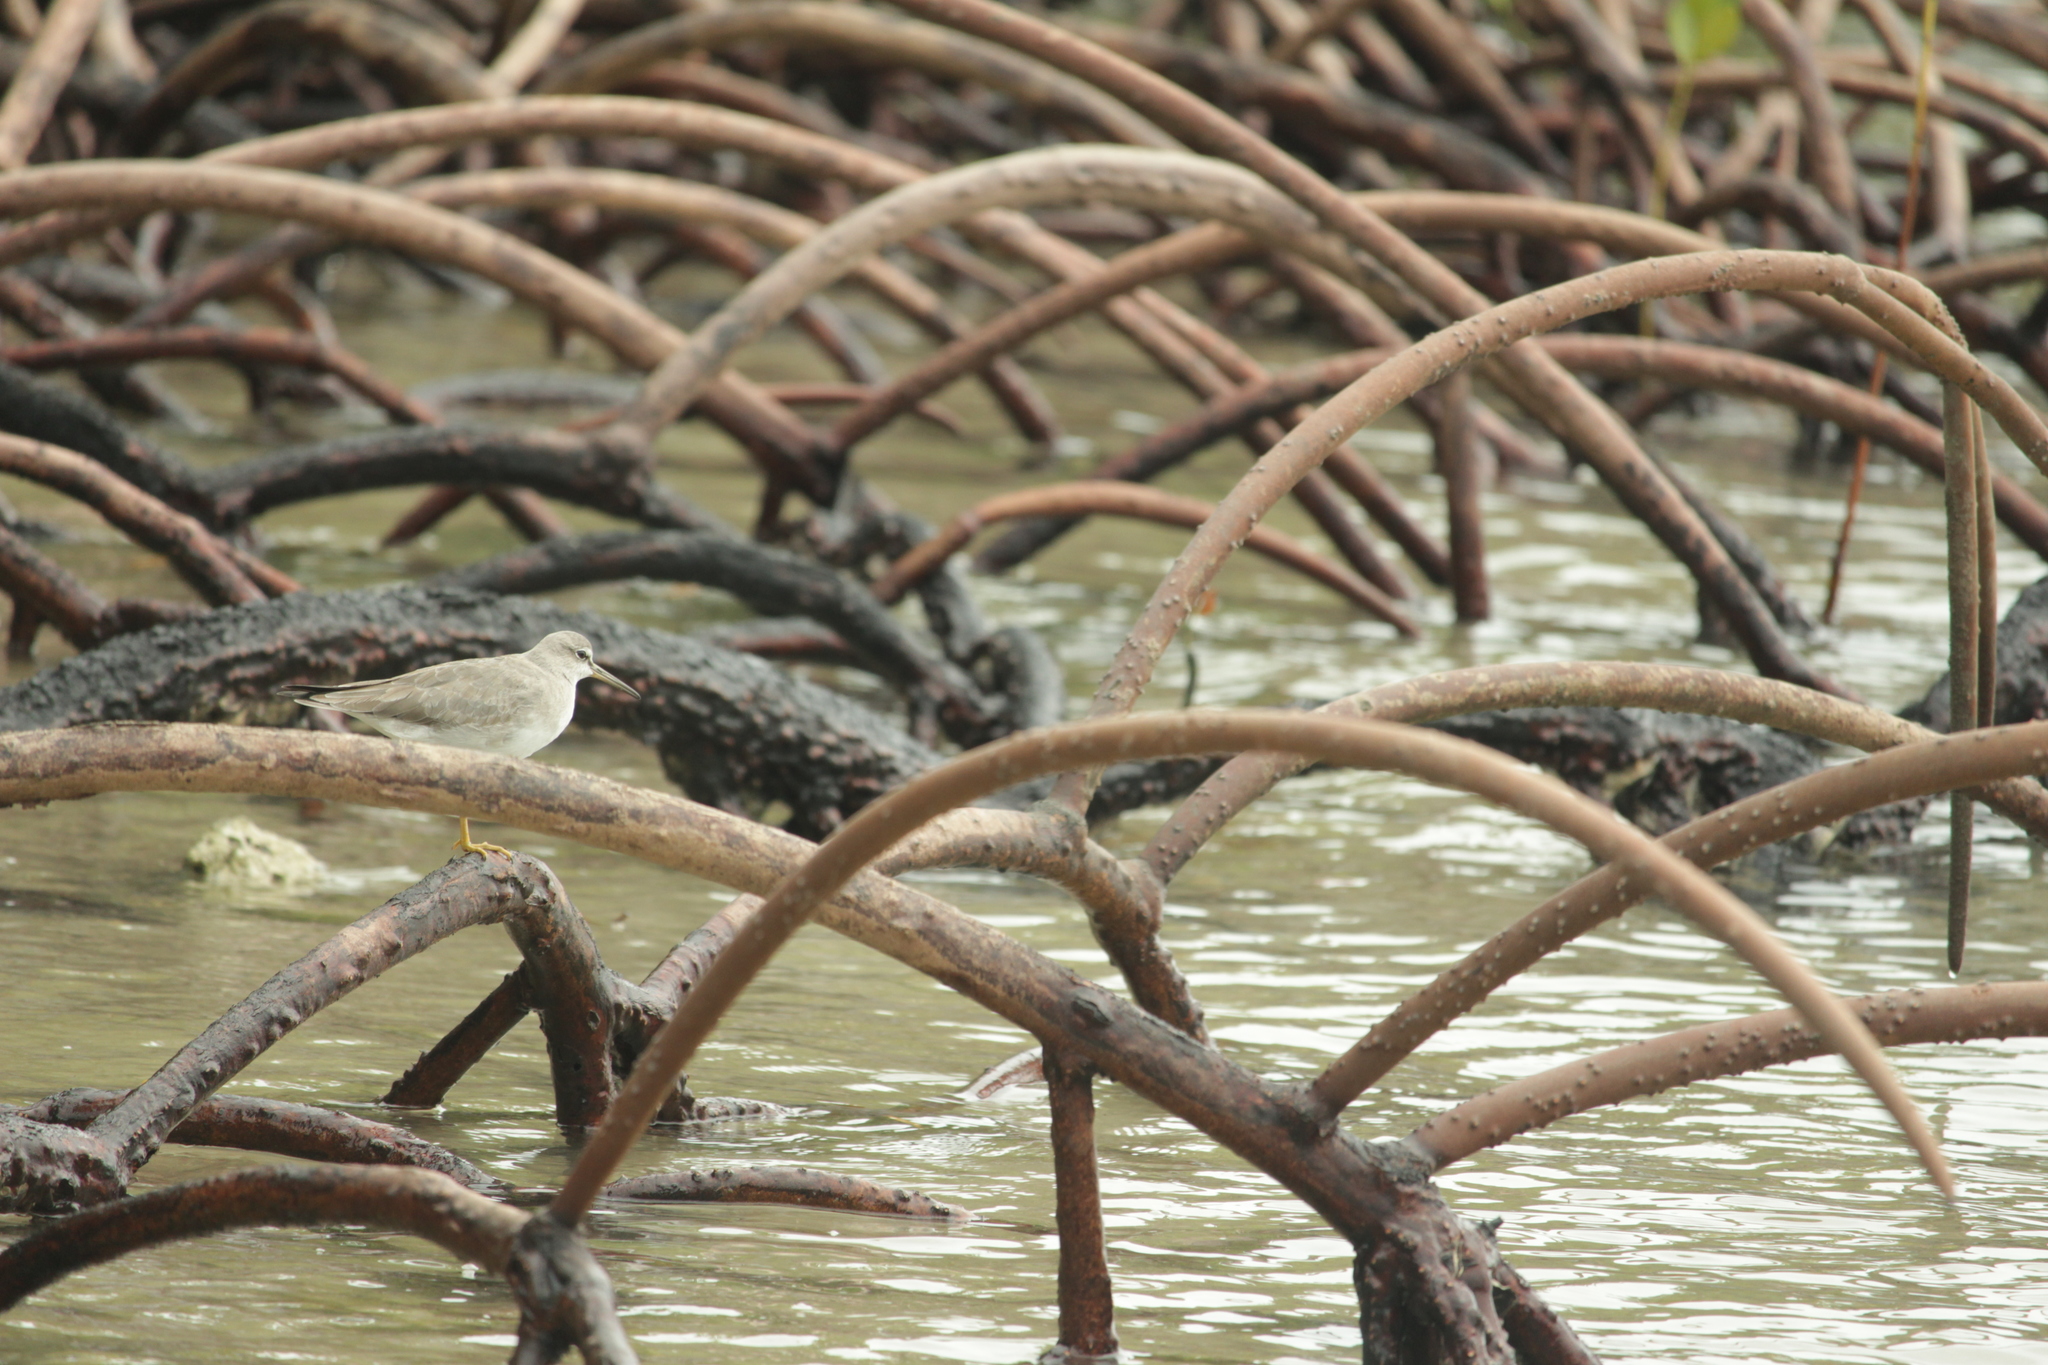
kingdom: Animalia
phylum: Chordata
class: Aves
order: Charadriiformes
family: Scolopacidae
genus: Tringa
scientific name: Tringa brevipes
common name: Grey-tailed tattler
